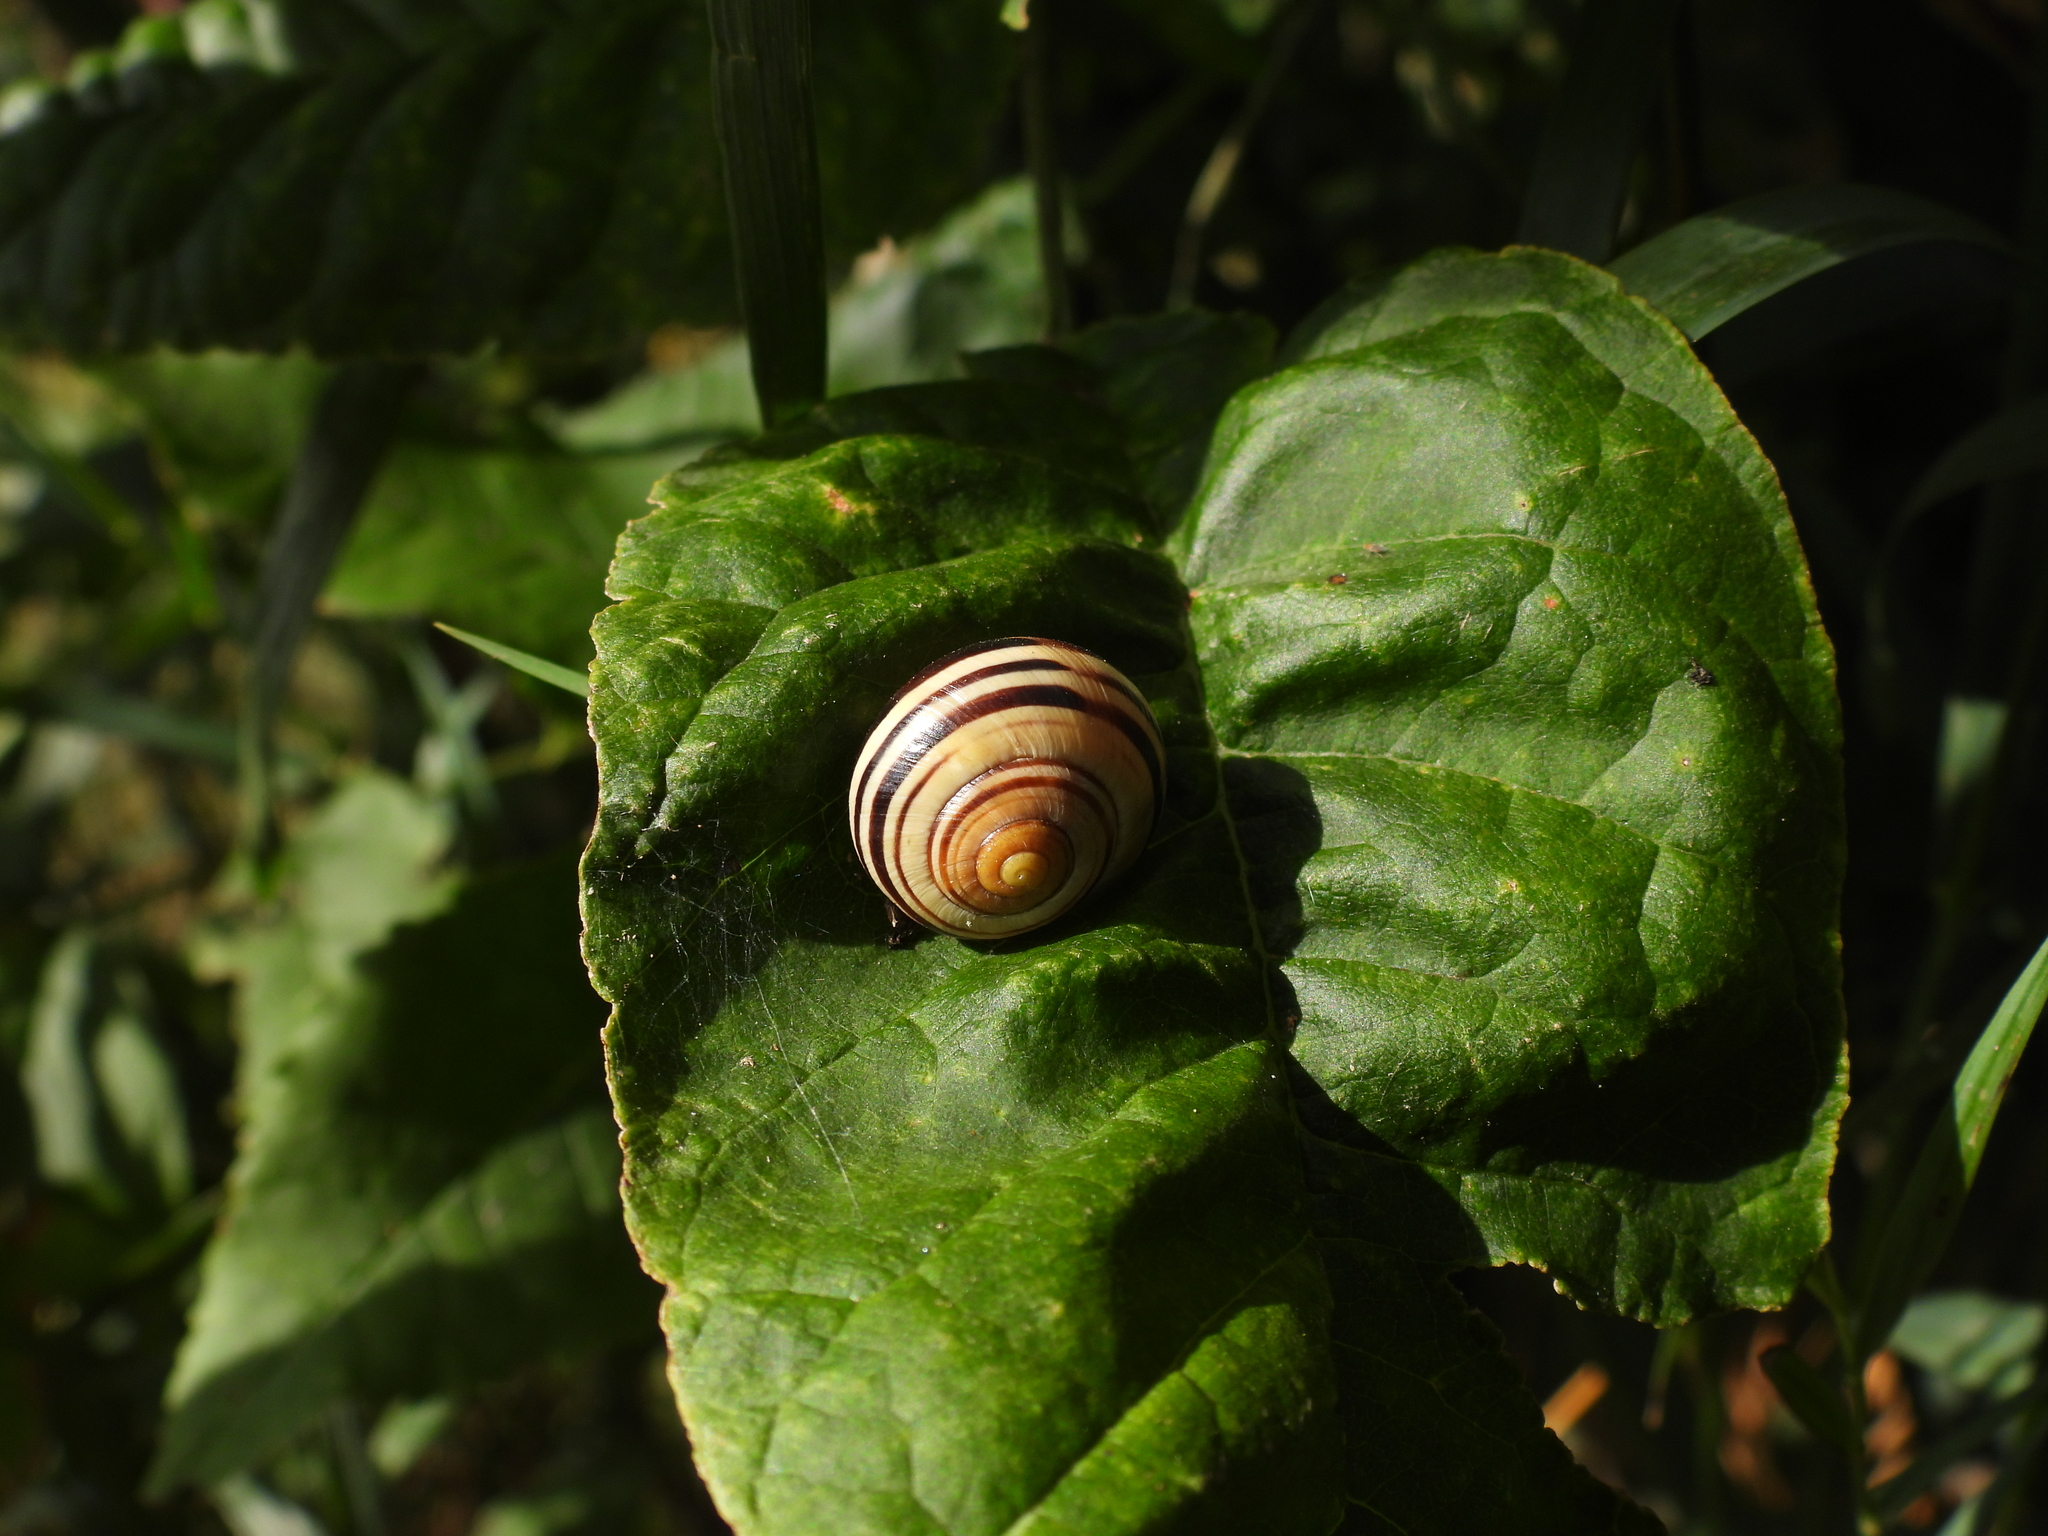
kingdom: Animalia
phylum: Mollusca
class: Gastropoda
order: Stylommatophora
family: Helicidae
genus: Cepaea
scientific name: Cepaea nemoralis
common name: Grovesnail
